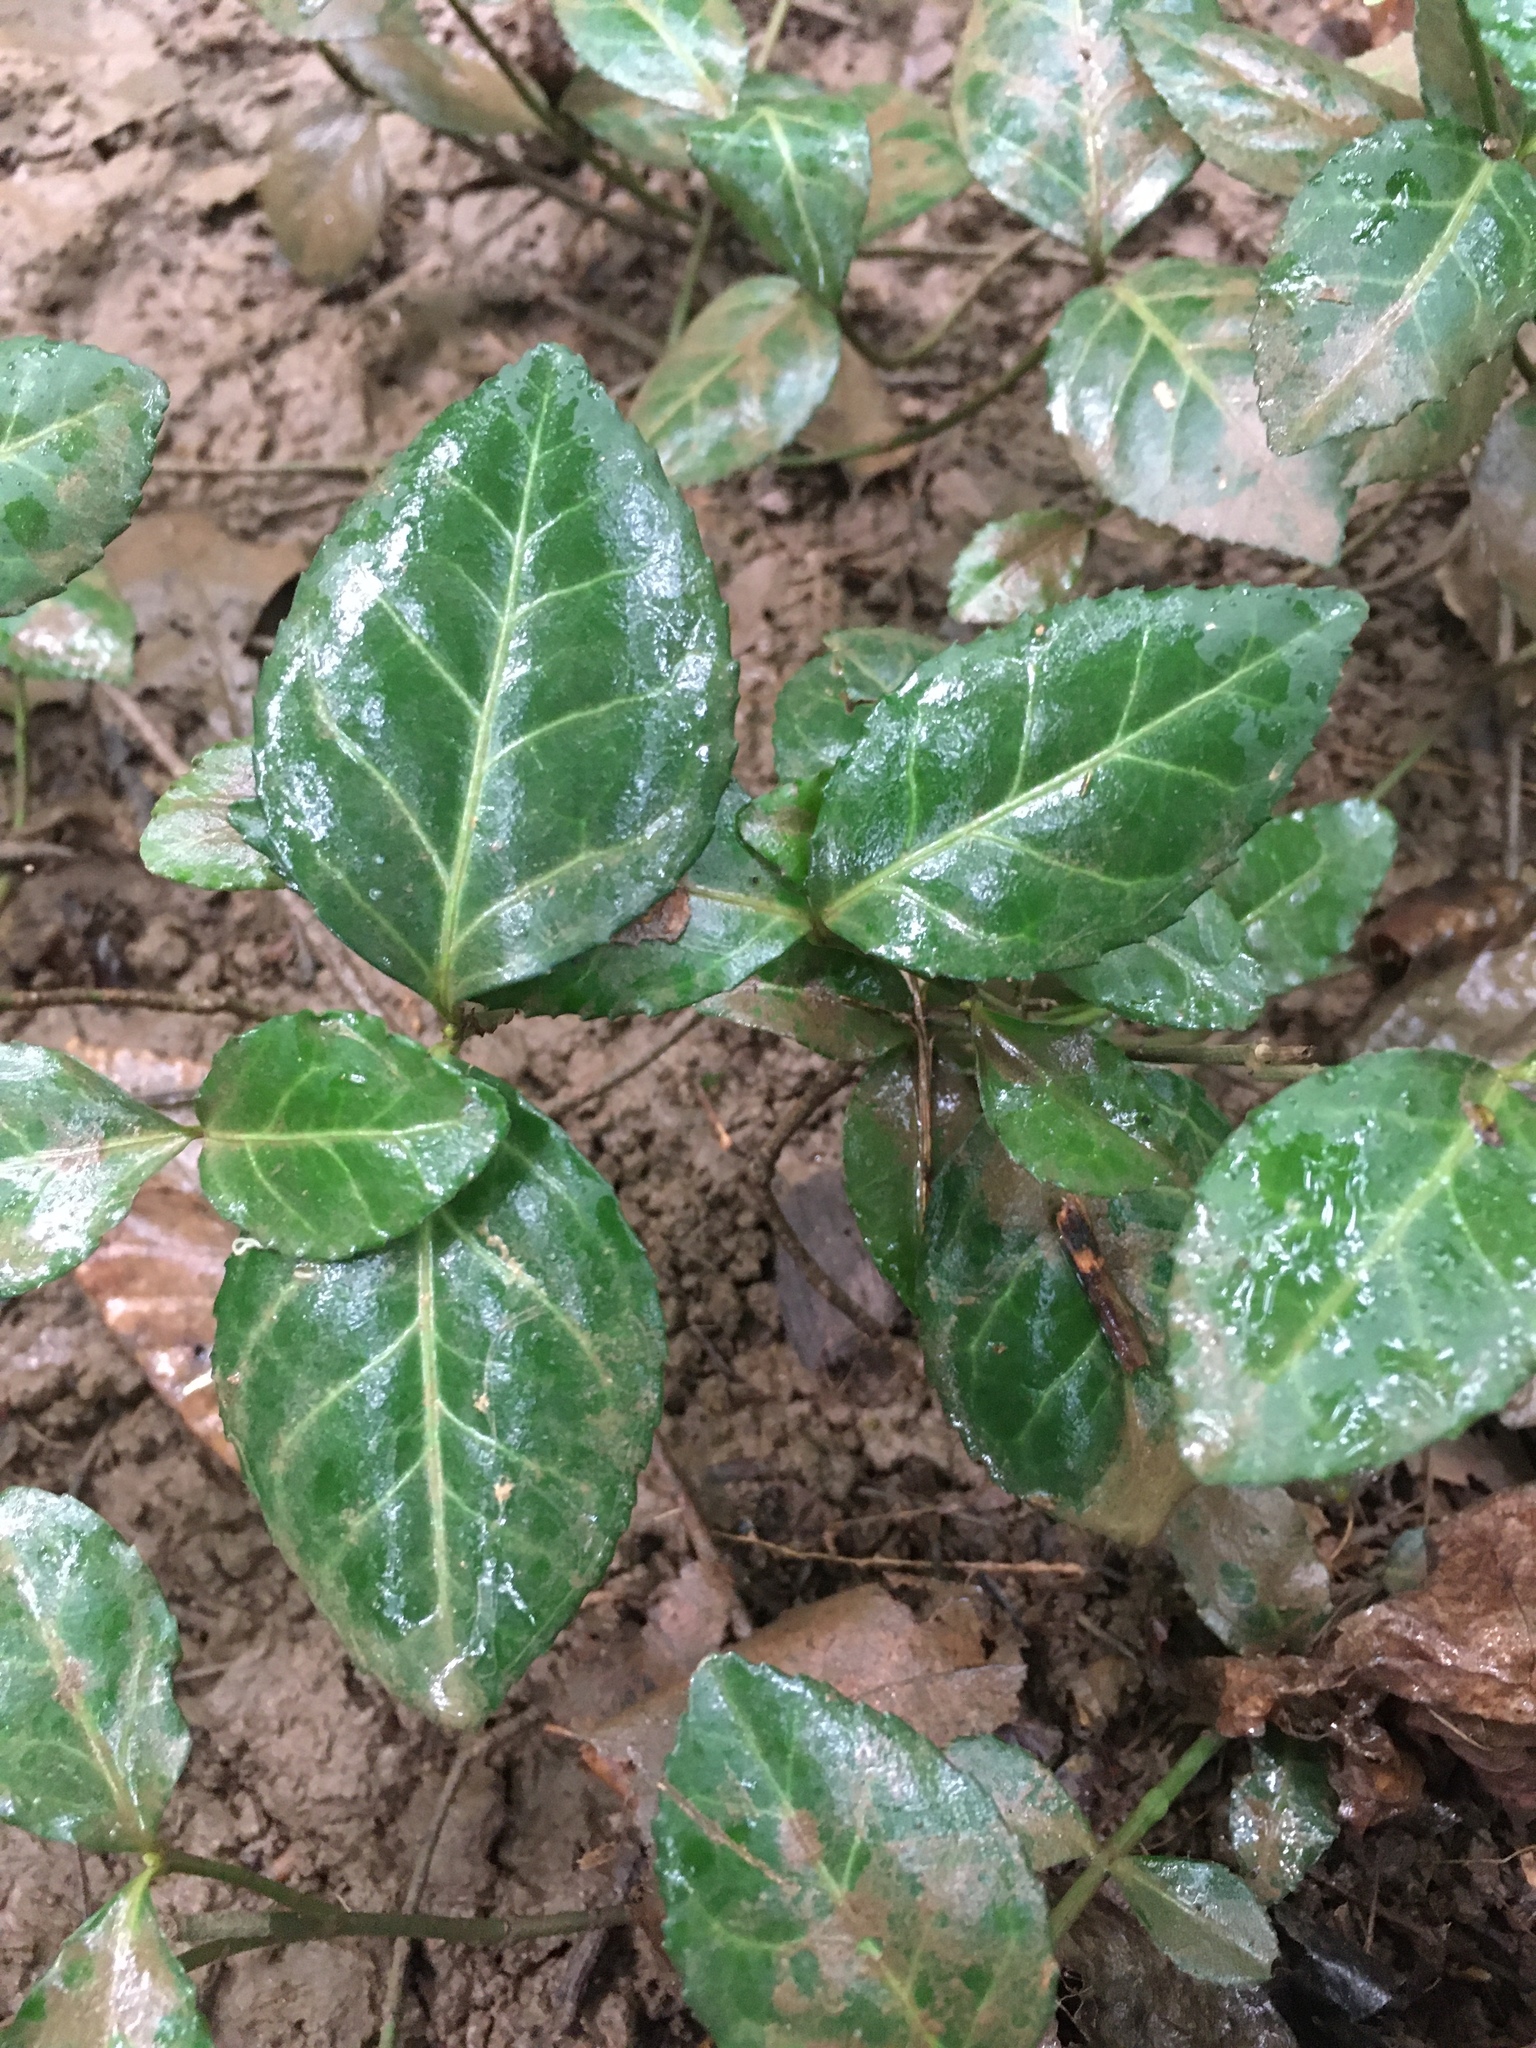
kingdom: Plantae
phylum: Tracheophyta
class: Magnoliopsida
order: Celastrales
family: Celastraceae
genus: Euonymus
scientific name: Euonymus fortunei
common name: Climbing euonymus
